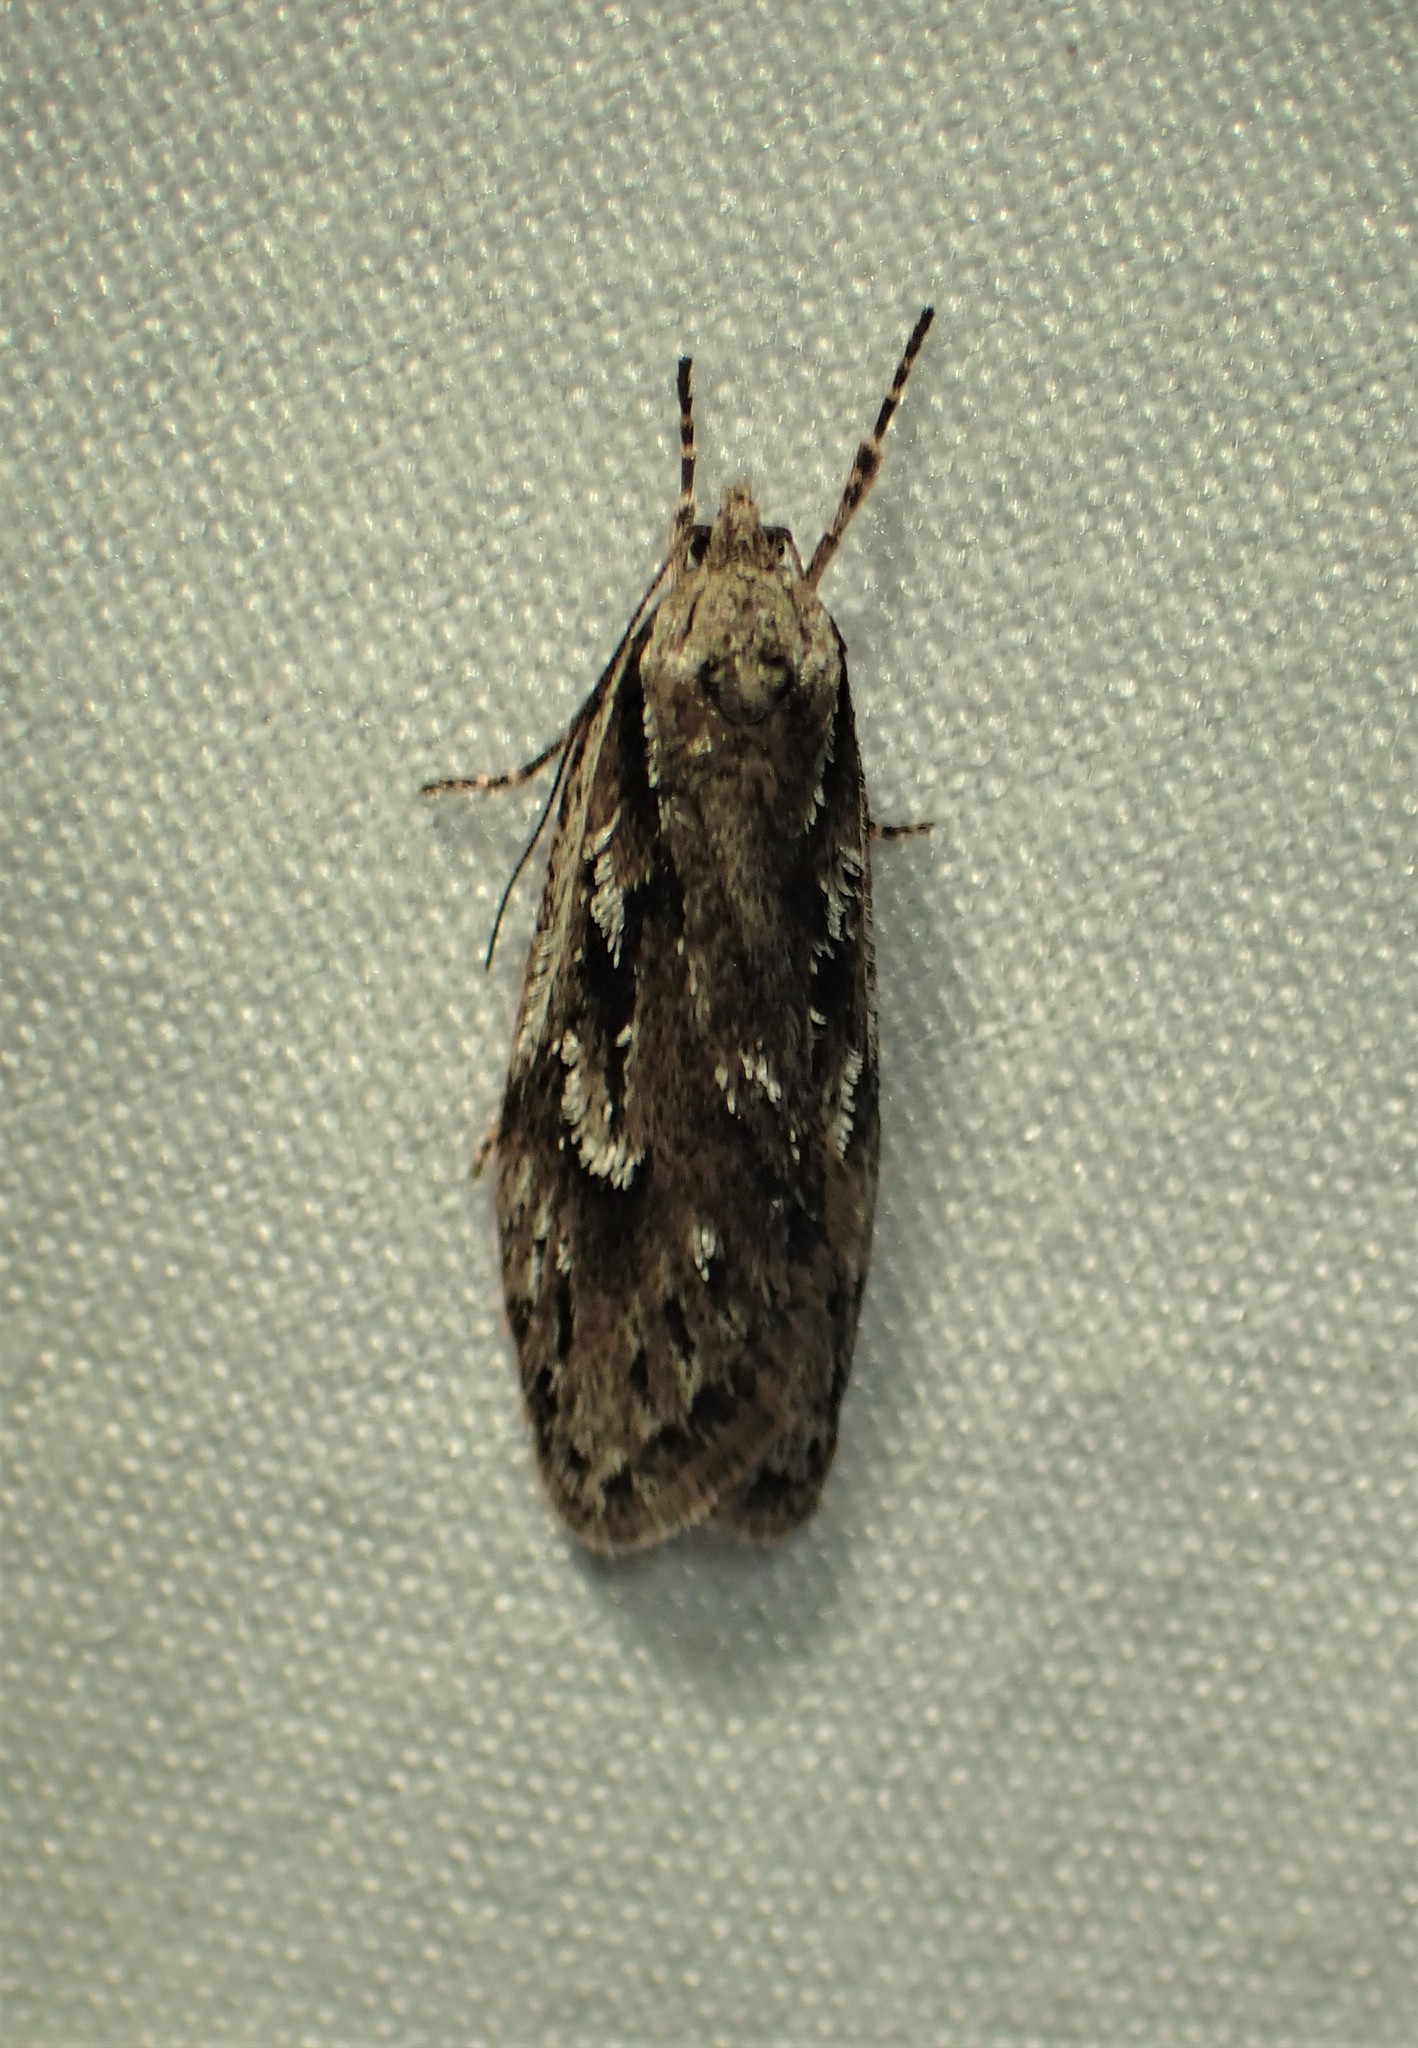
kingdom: Animalia
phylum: Arthropoda
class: Insecta
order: Lepidoptera
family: Depressariidae
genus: Semioscopis
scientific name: Semioscopis aurorella
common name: Aurora flatbody moth
